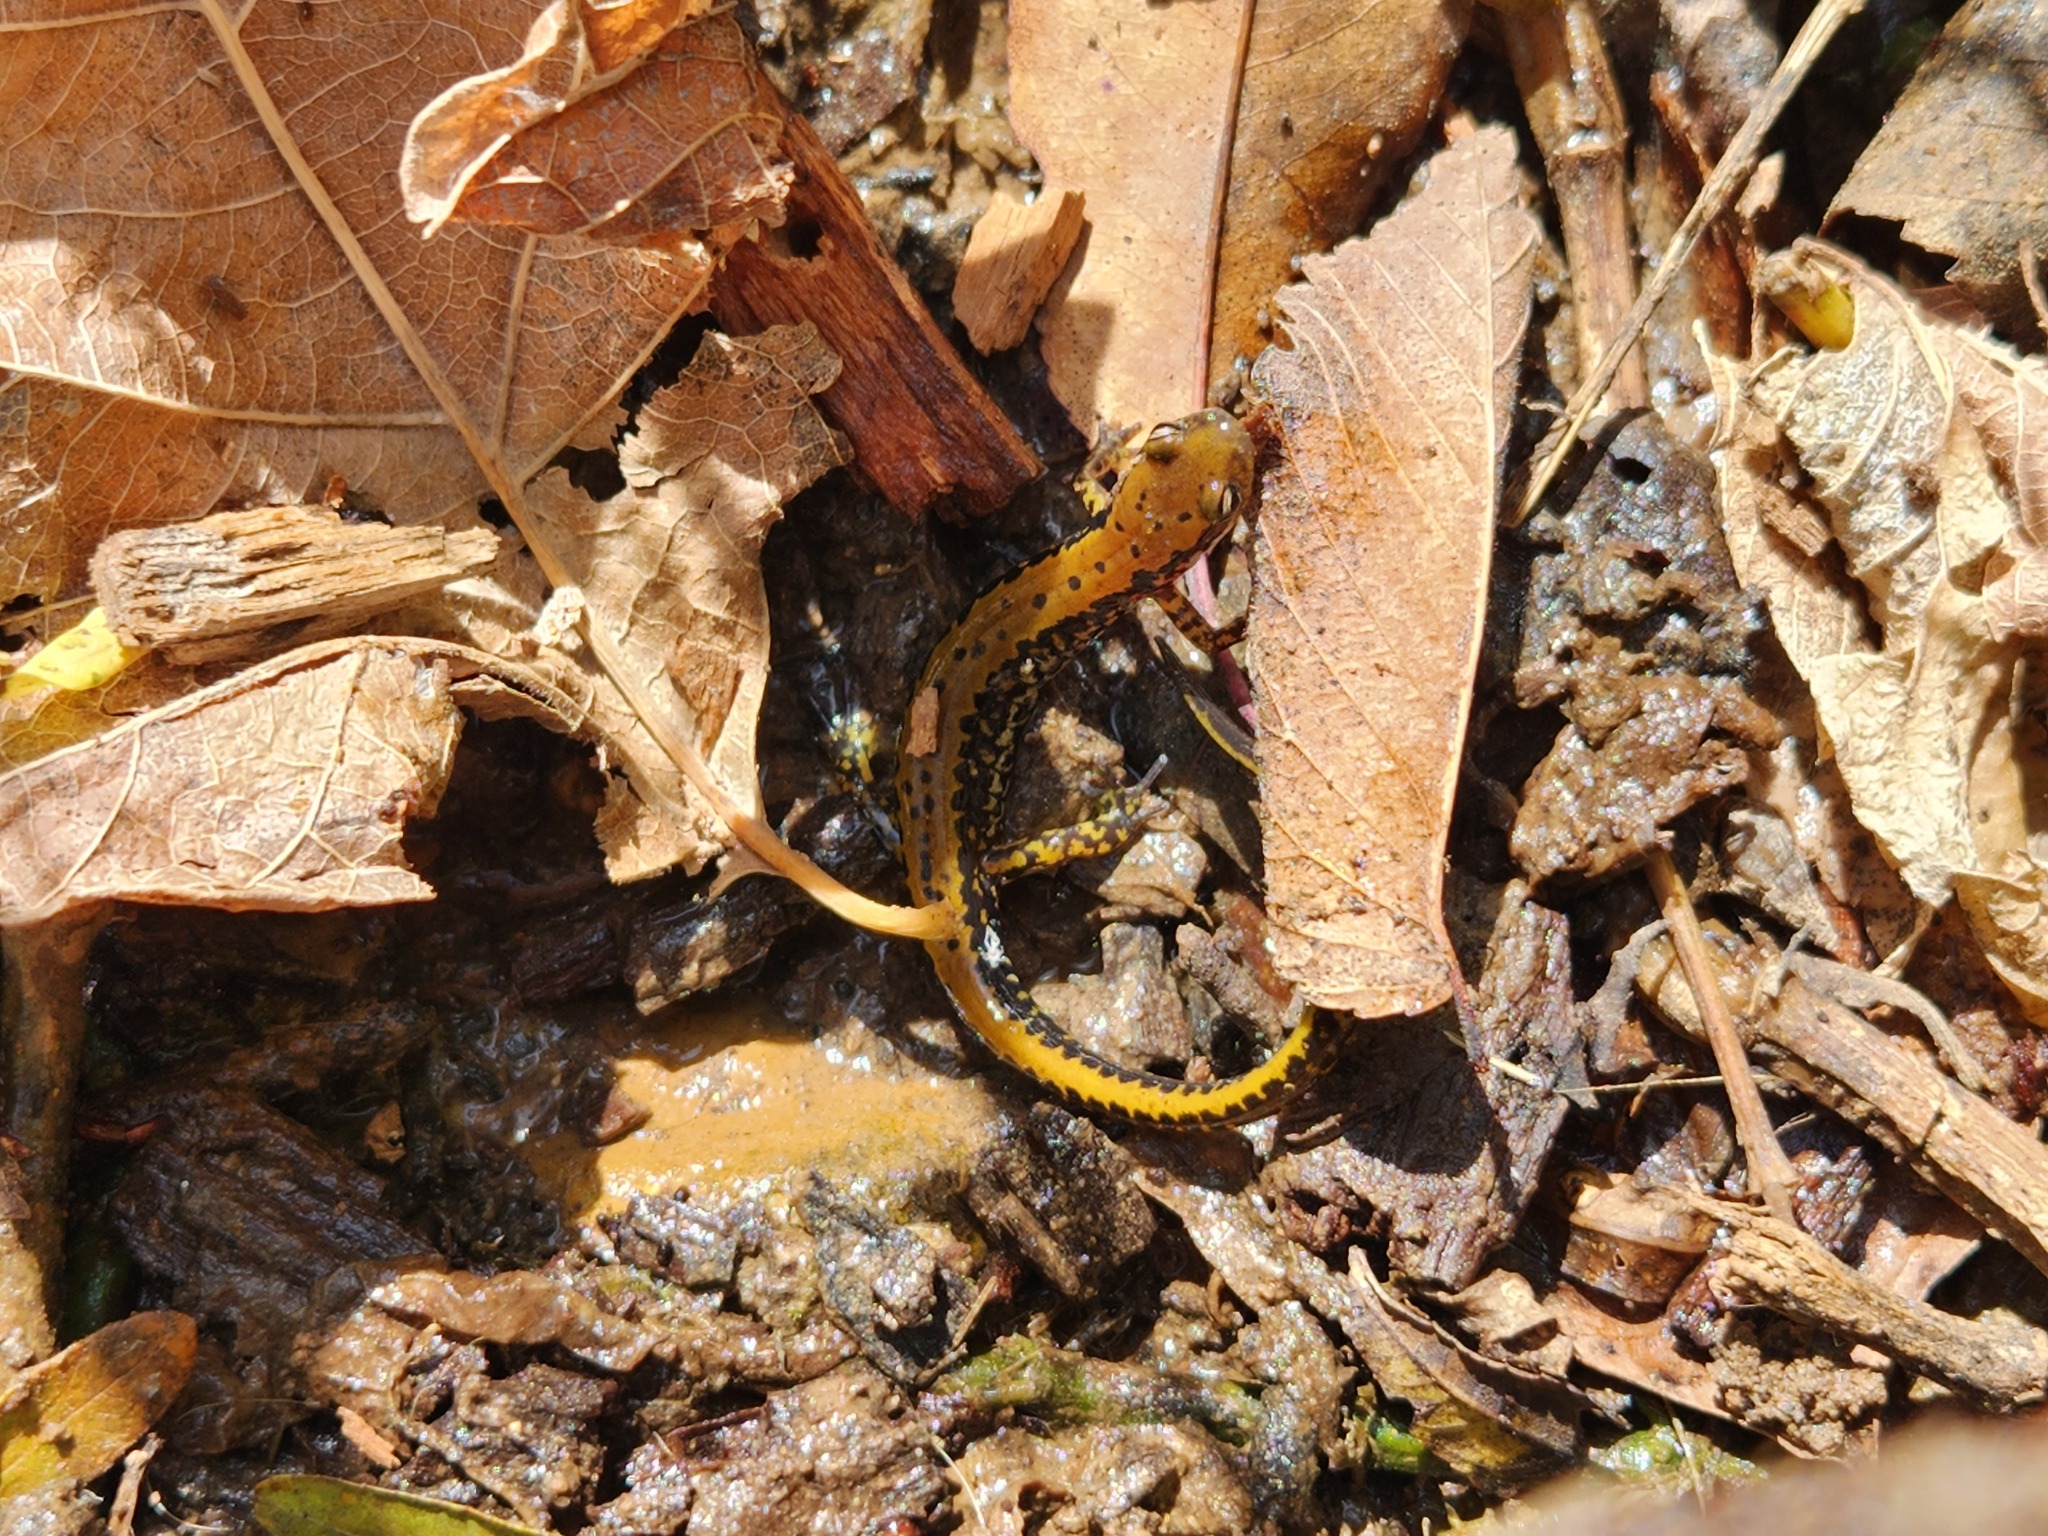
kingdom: Animalia
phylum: Chordata
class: Amphibia
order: Caudata
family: Plethodontidae
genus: Eurycea
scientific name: Eurycea longicauda
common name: Long-tailed salamander
